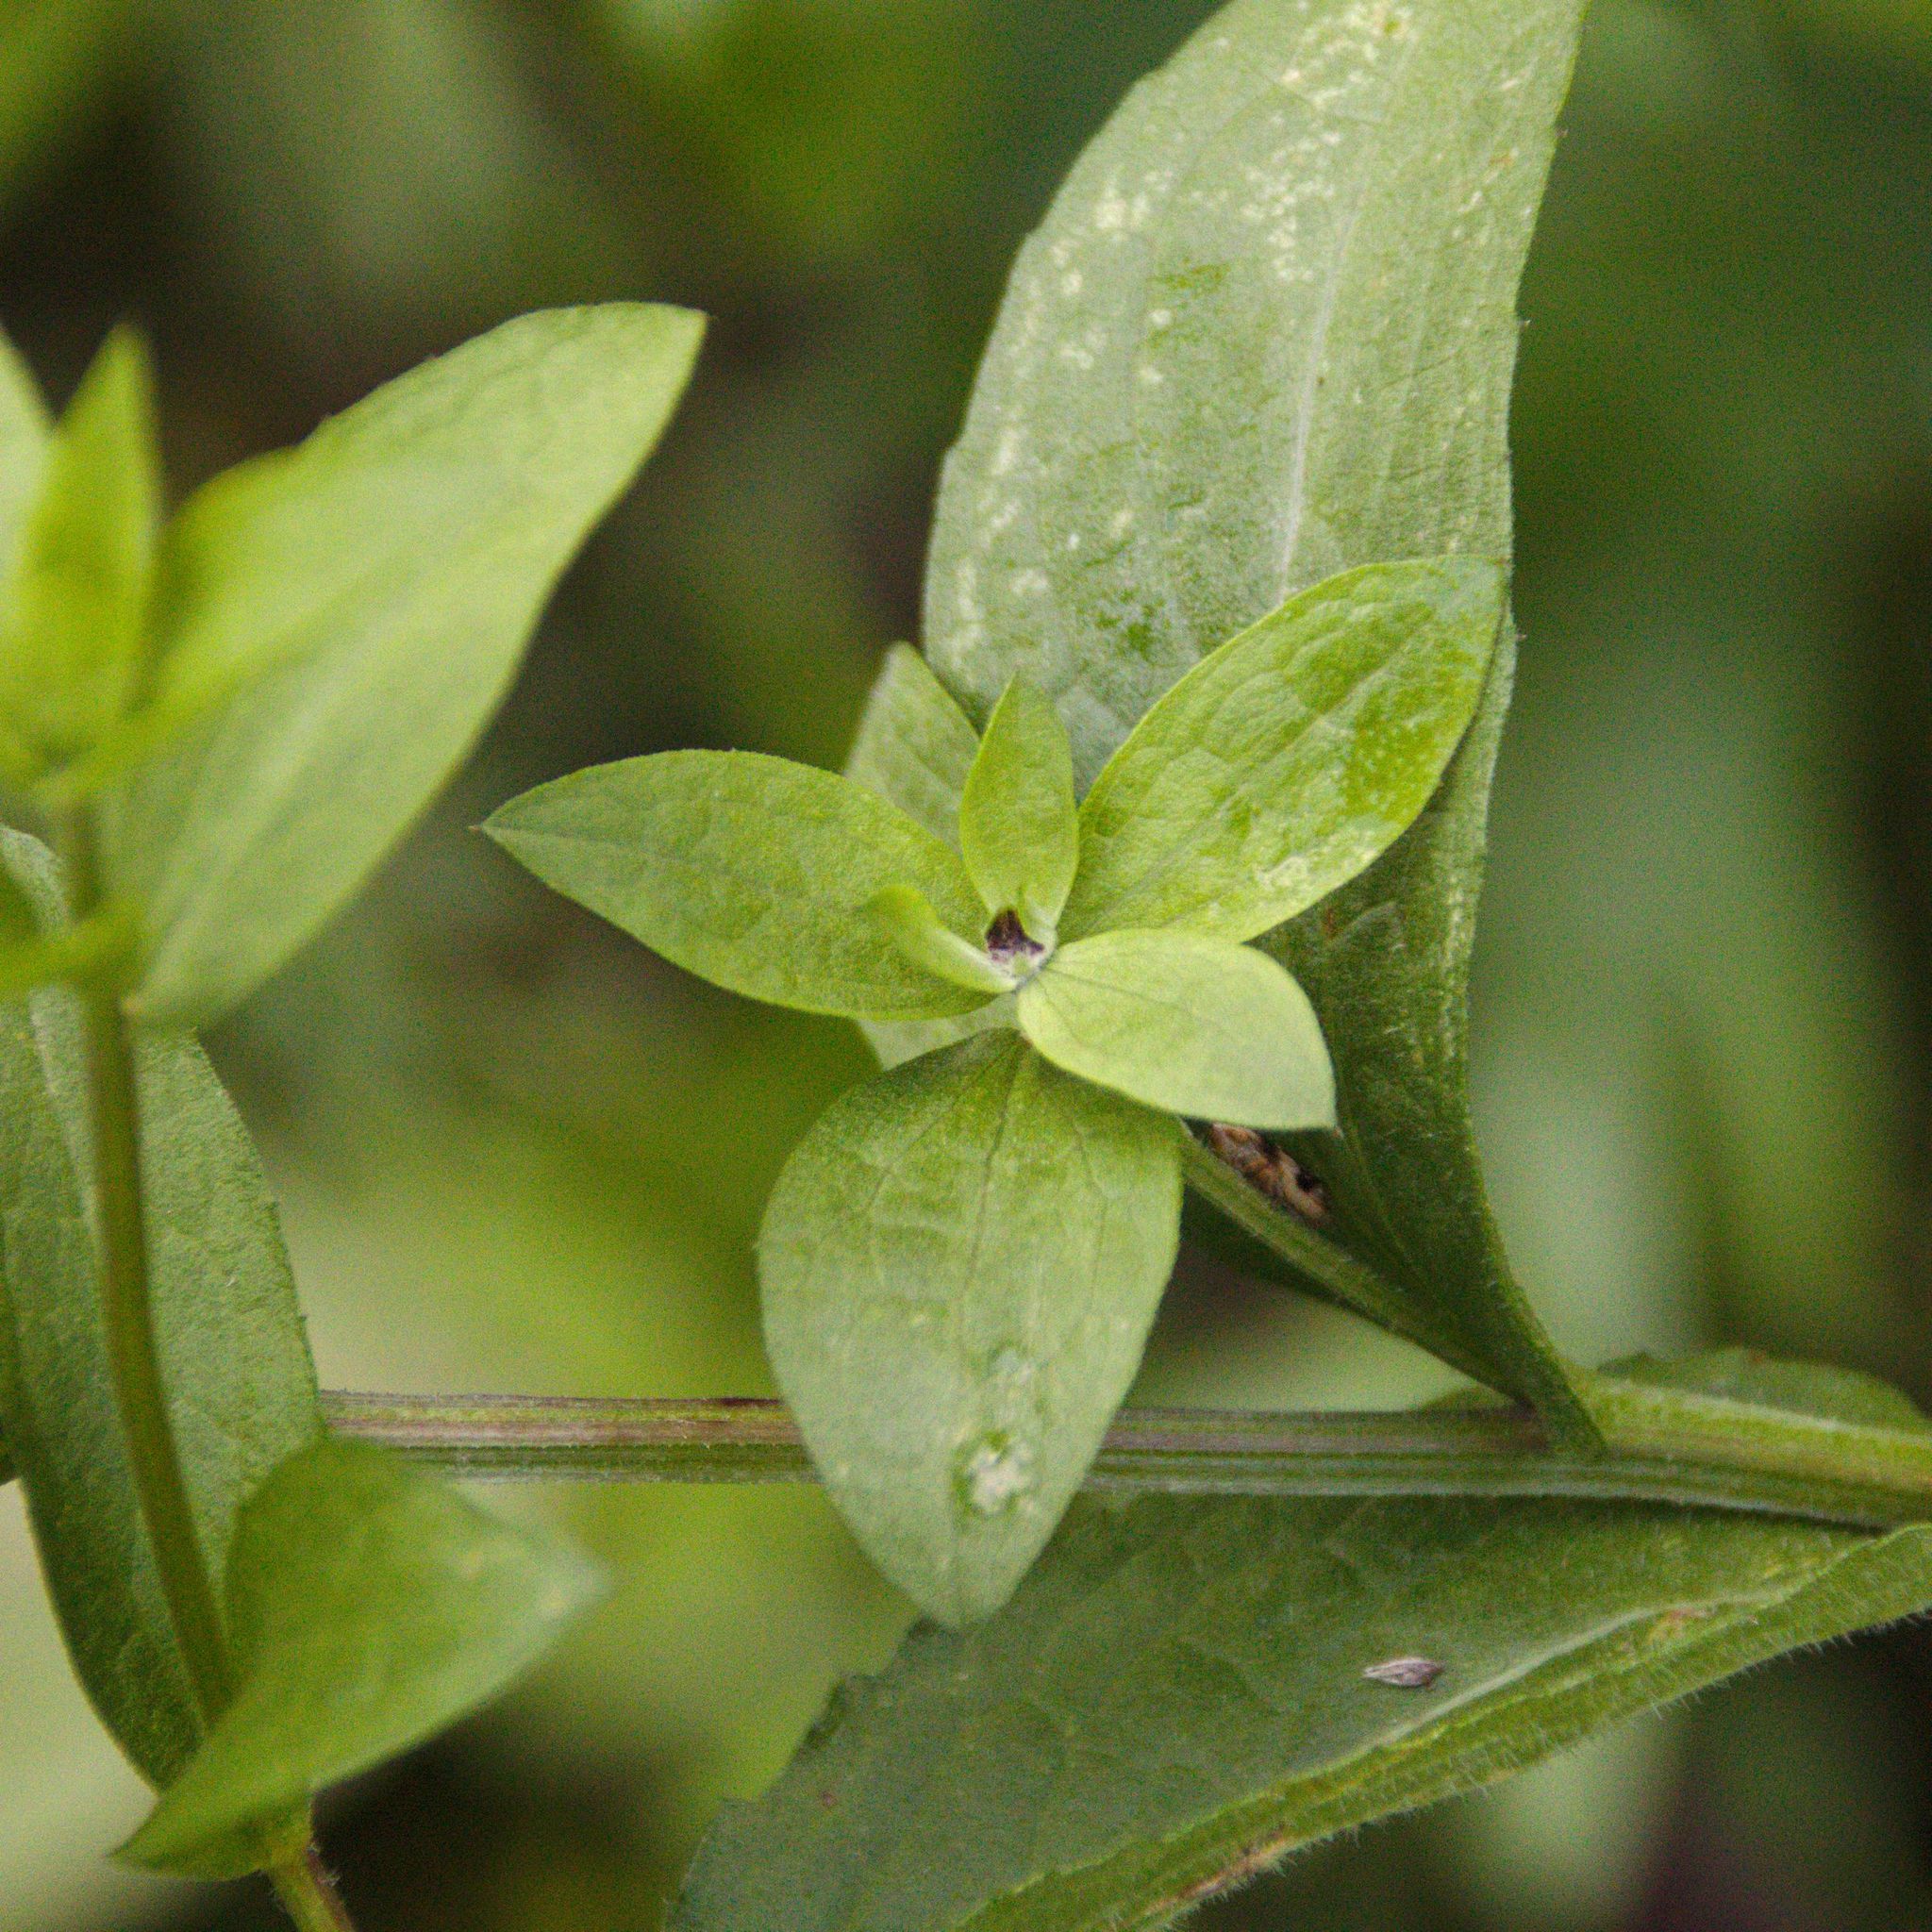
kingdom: Plantae
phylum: Tracheophyta
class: Magnoliopsida
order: Asterales
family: Asteraceae
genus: Centaurea
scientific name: Centaurea phrygia
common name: Wig knapweed
